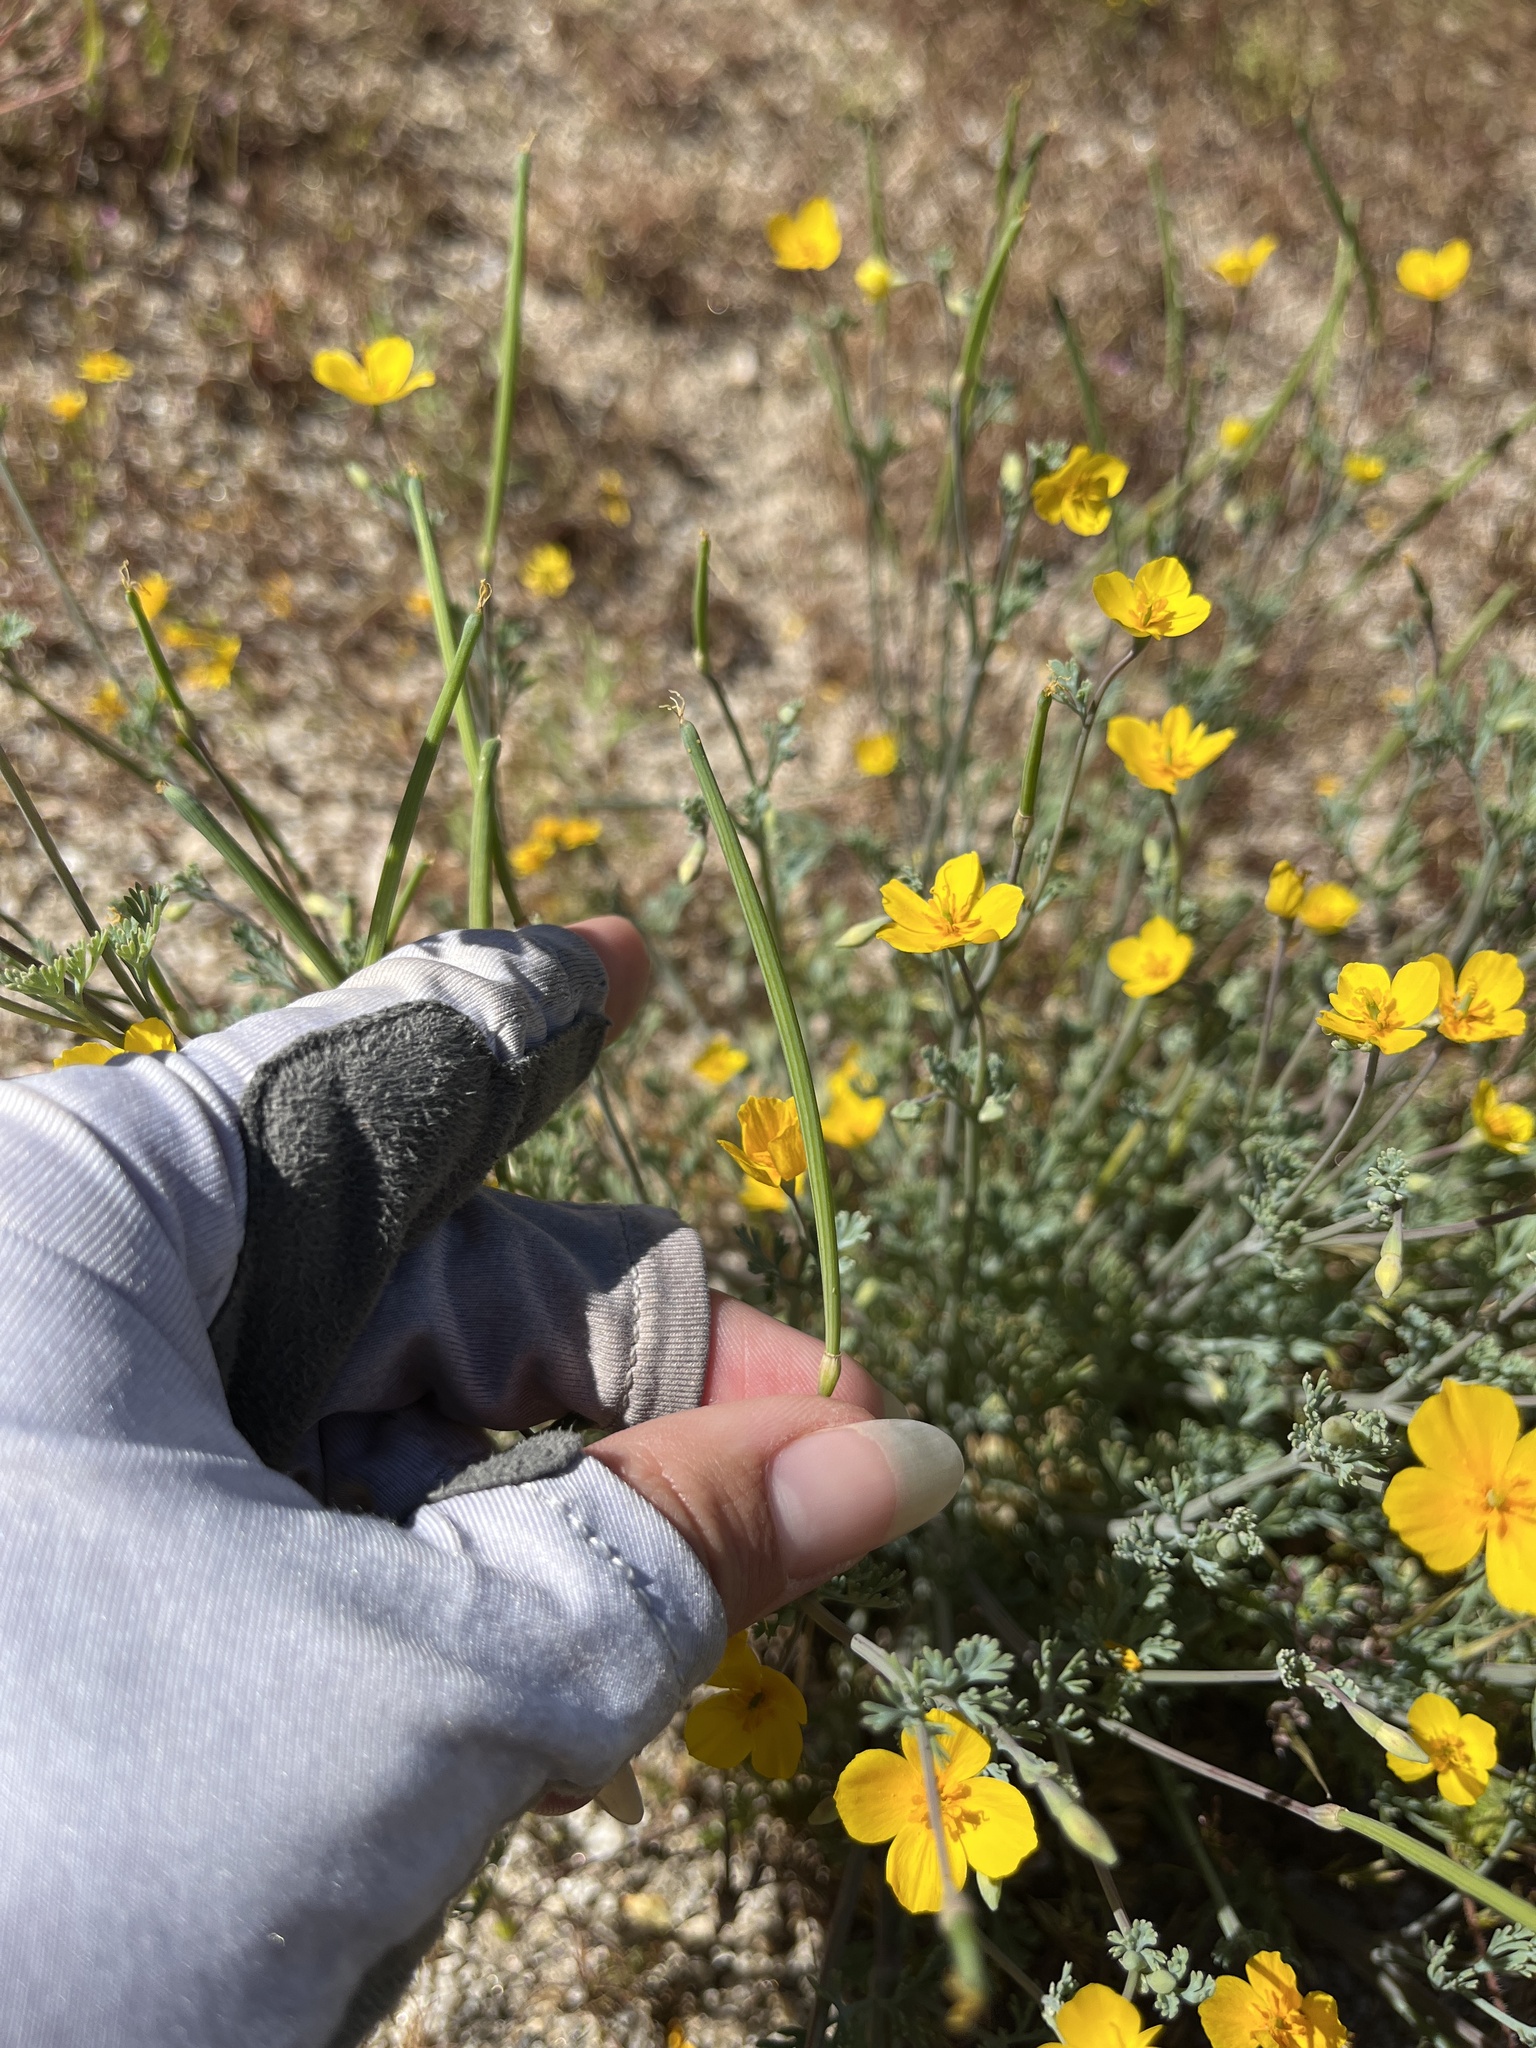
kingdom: Plantae
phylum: Tracheophyta
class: Magnoliopsida
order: Ranunculales
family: Papaveraceae
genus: Eschscholzia
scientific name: Eschscholzia minutiflora
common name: Small-flower california-poppy
